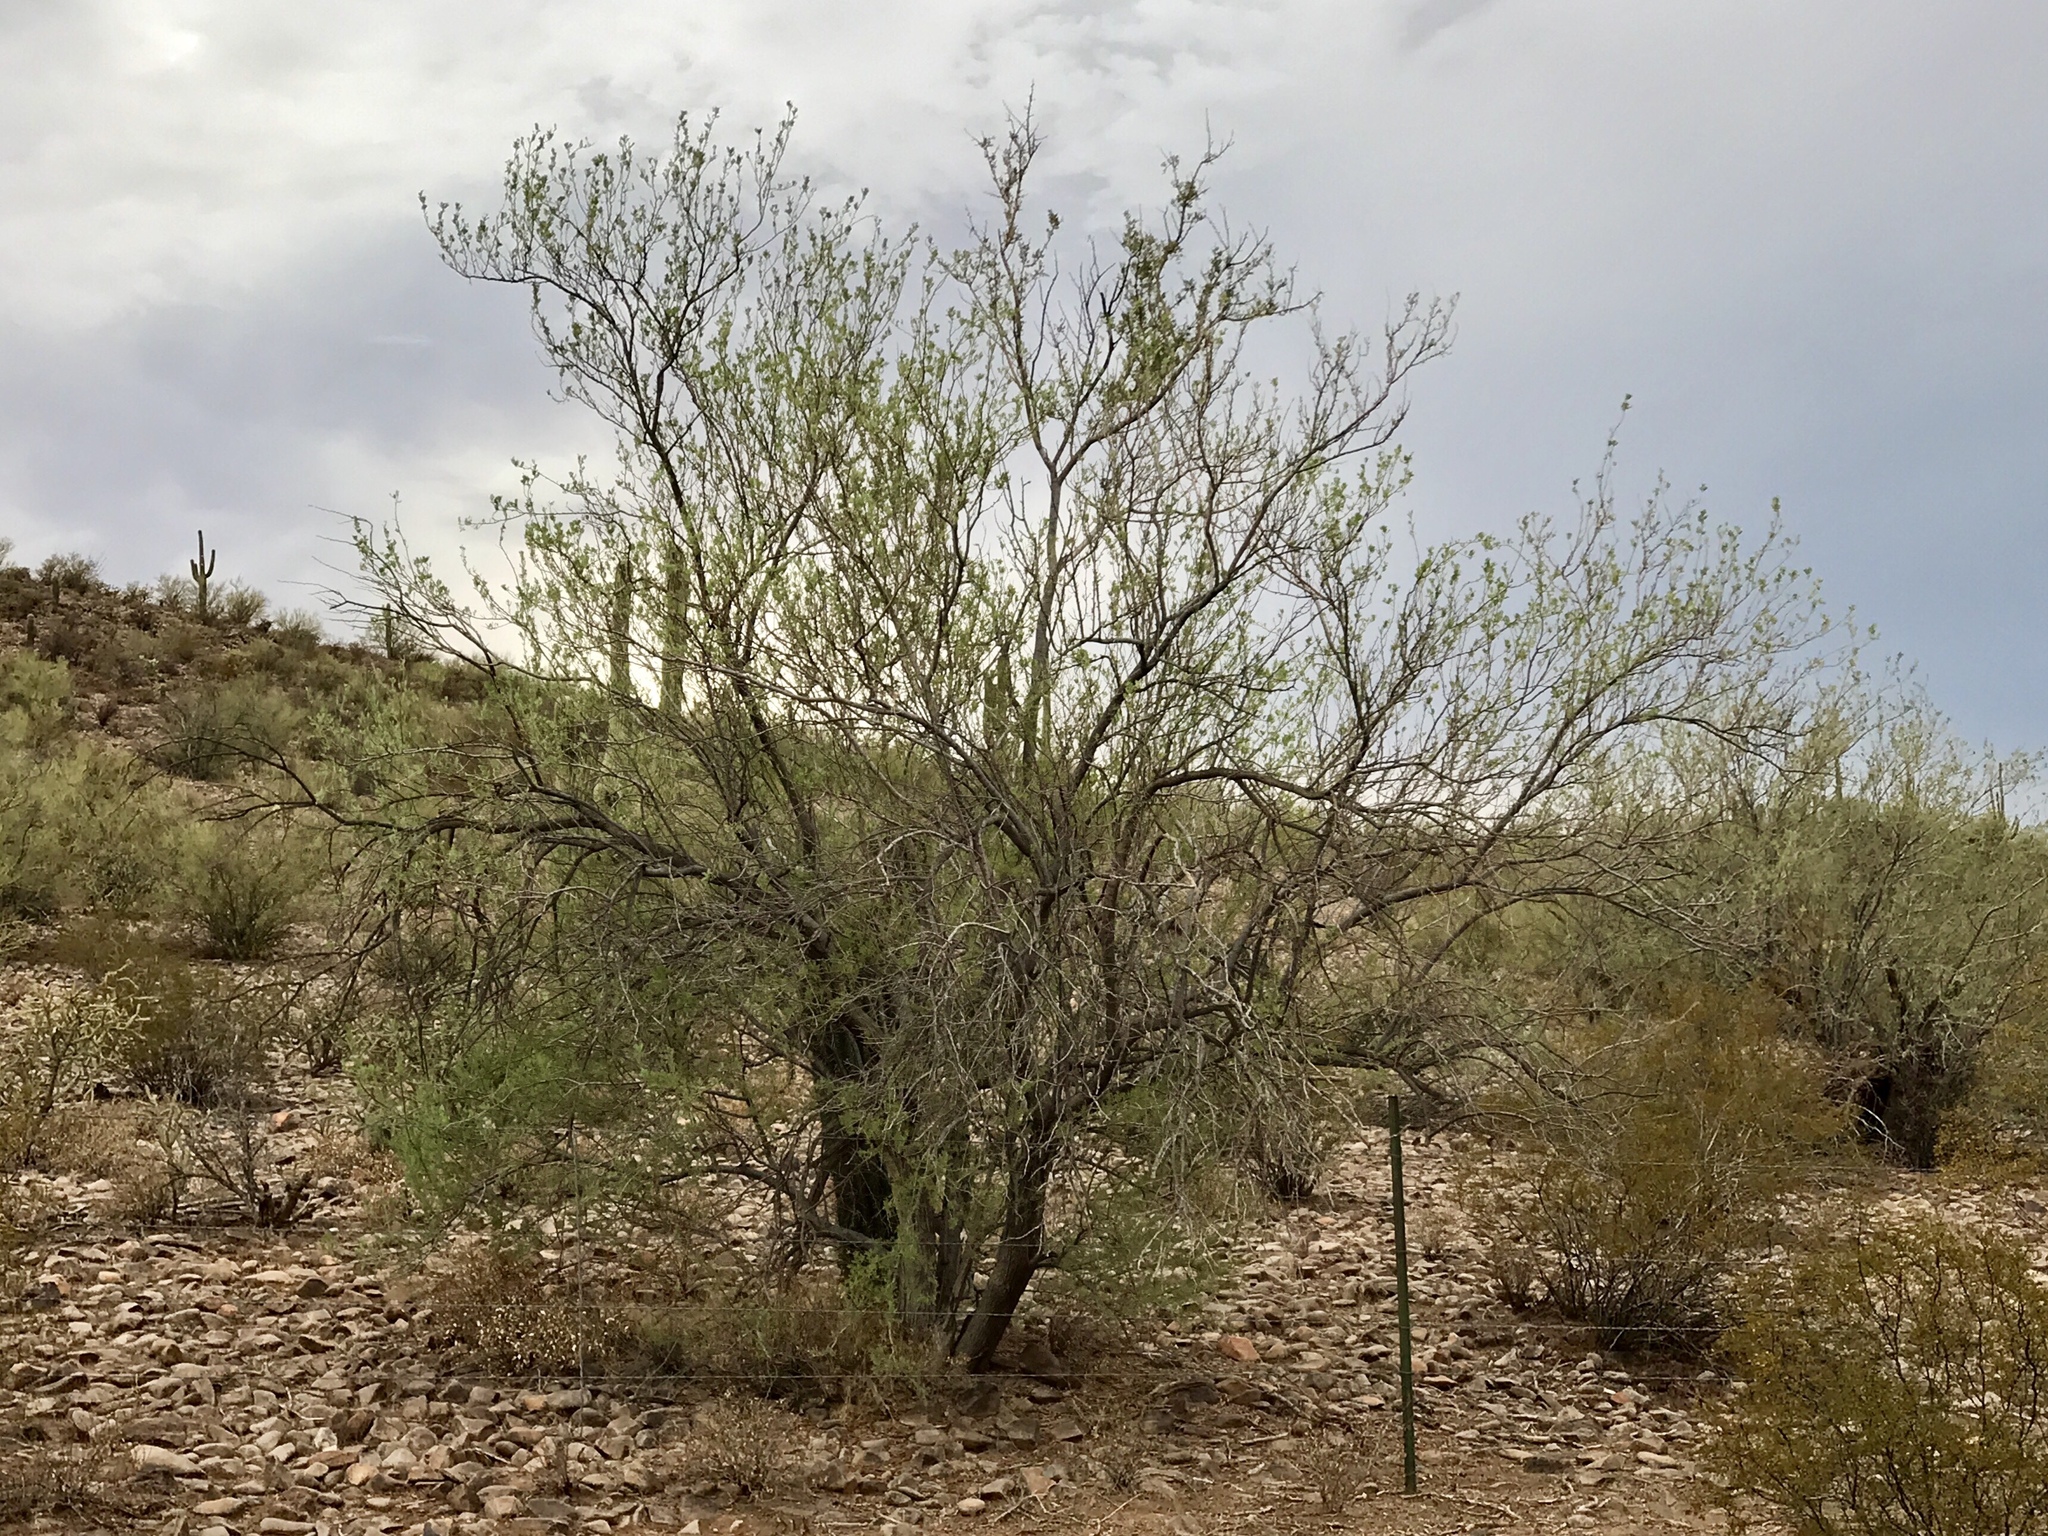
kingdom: Plantae
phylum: Tracheophyta
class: Magnoliopsida
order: Fabales
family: Fabaceae
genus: Olneya
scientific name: Olneya tesota
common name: Desert ironwood
